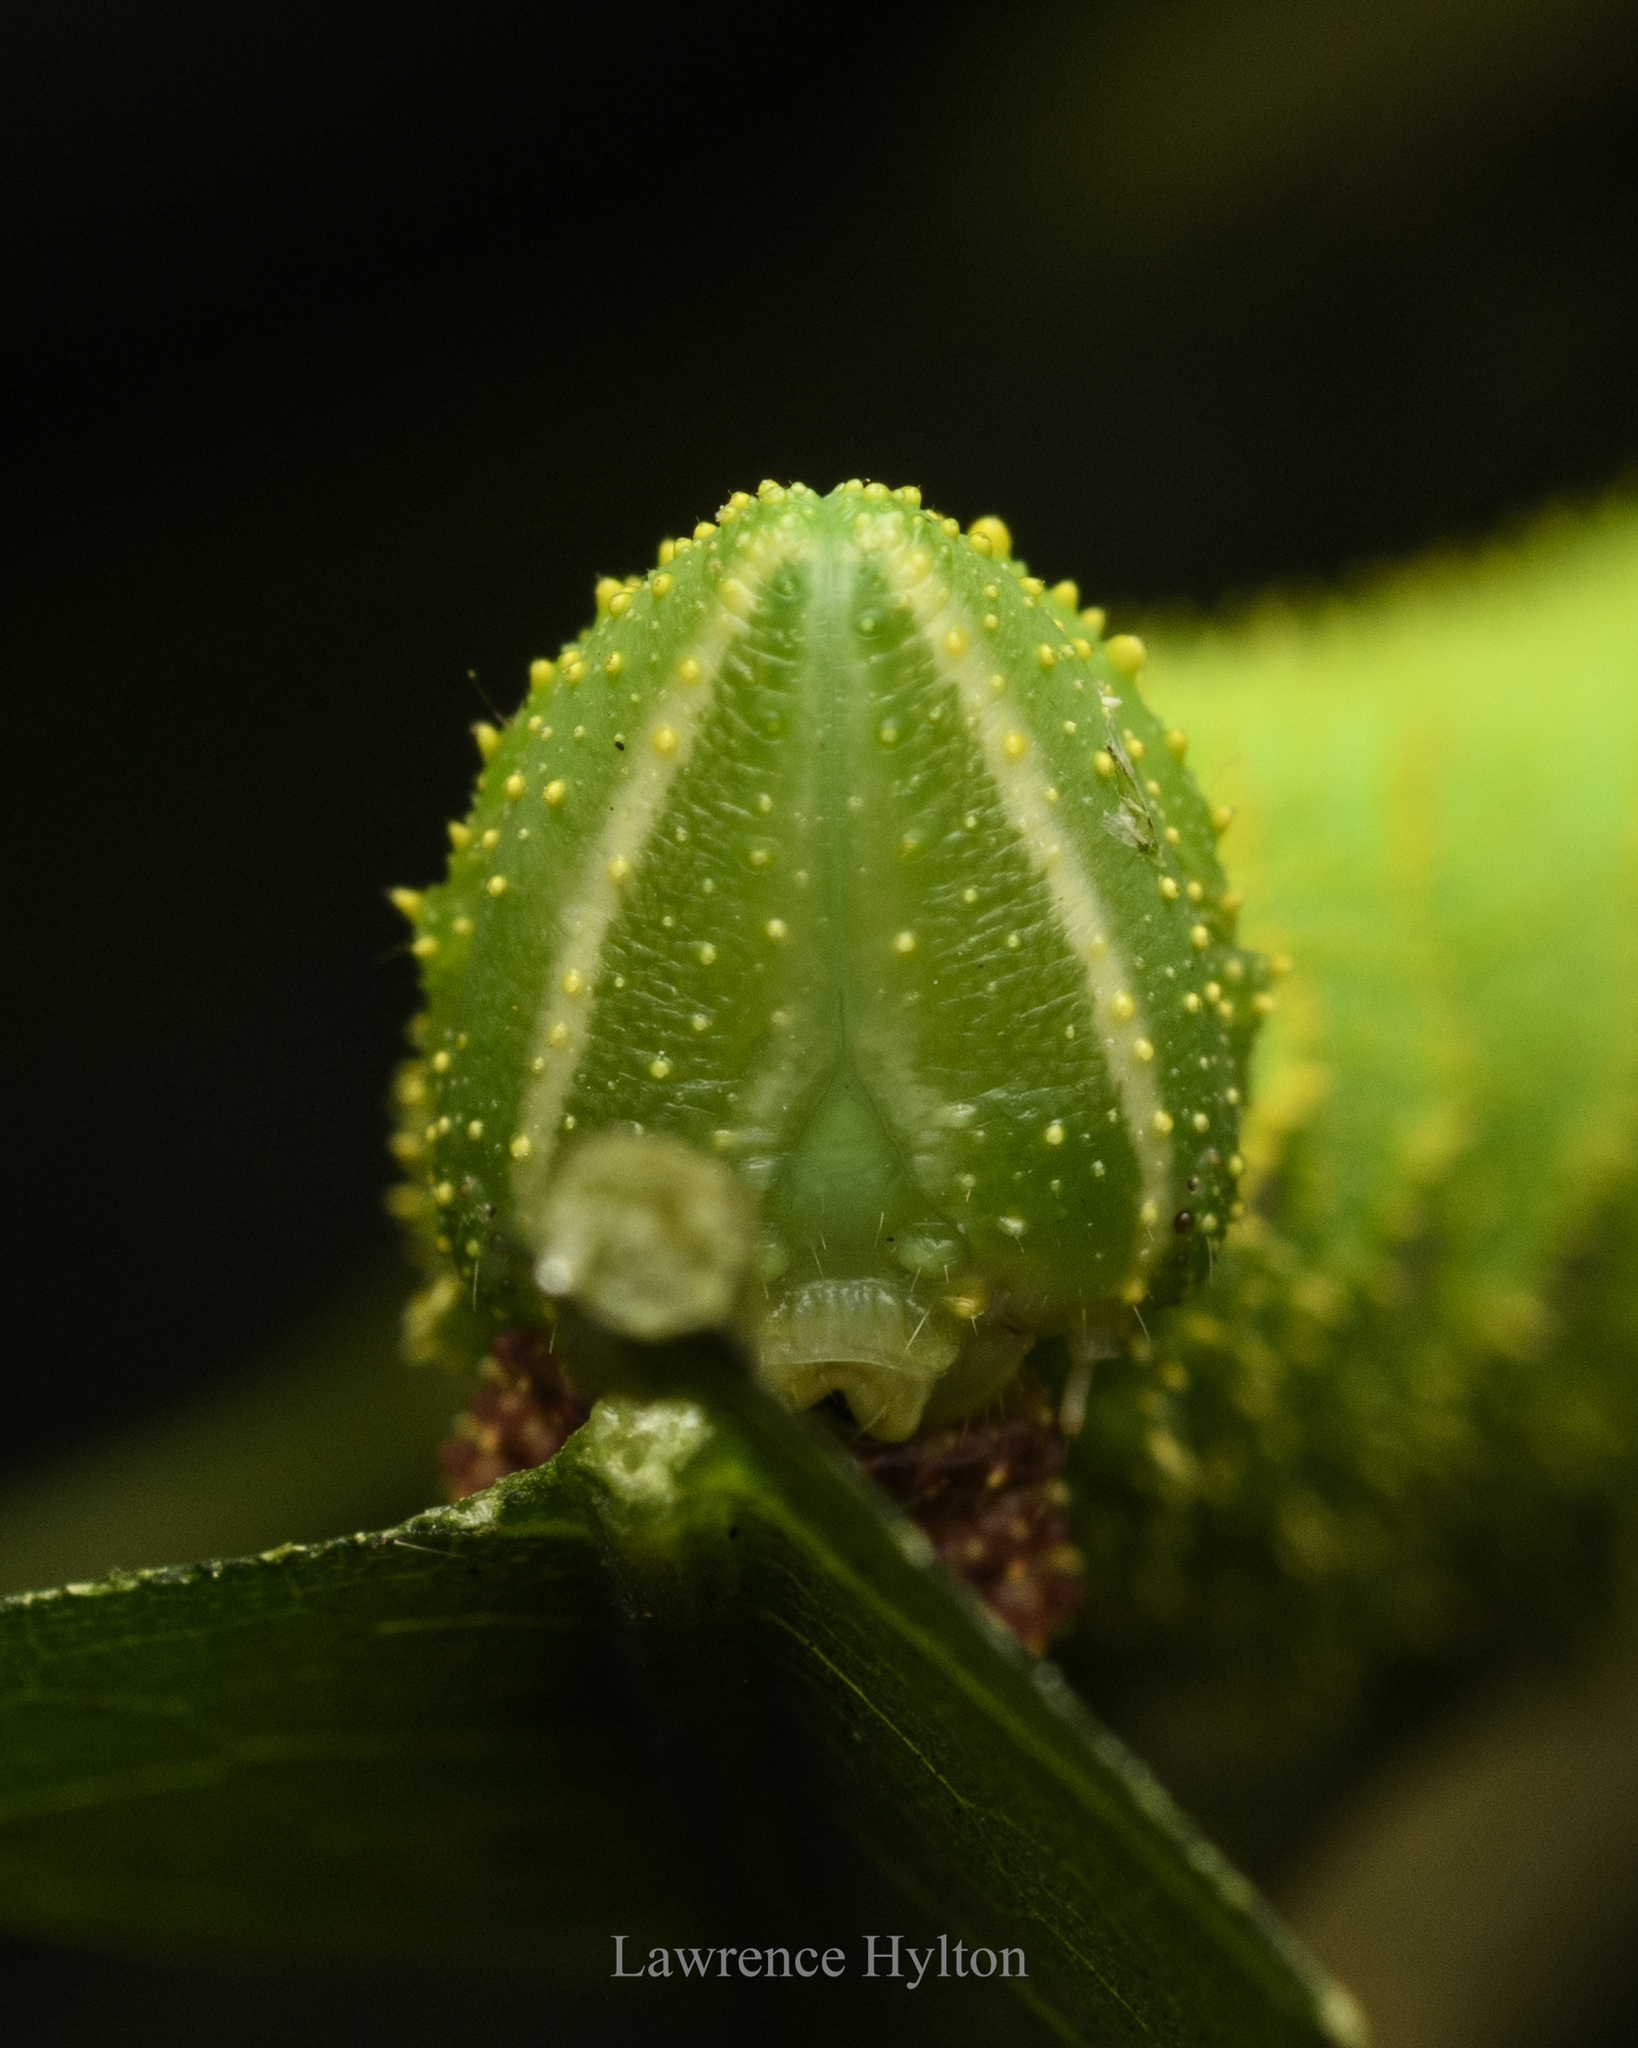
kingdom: Animalia
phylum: Arthropoda
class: Insecta
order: Lepidoptera
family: Sphingidae
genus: Marumba
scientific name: Marumba dyras
